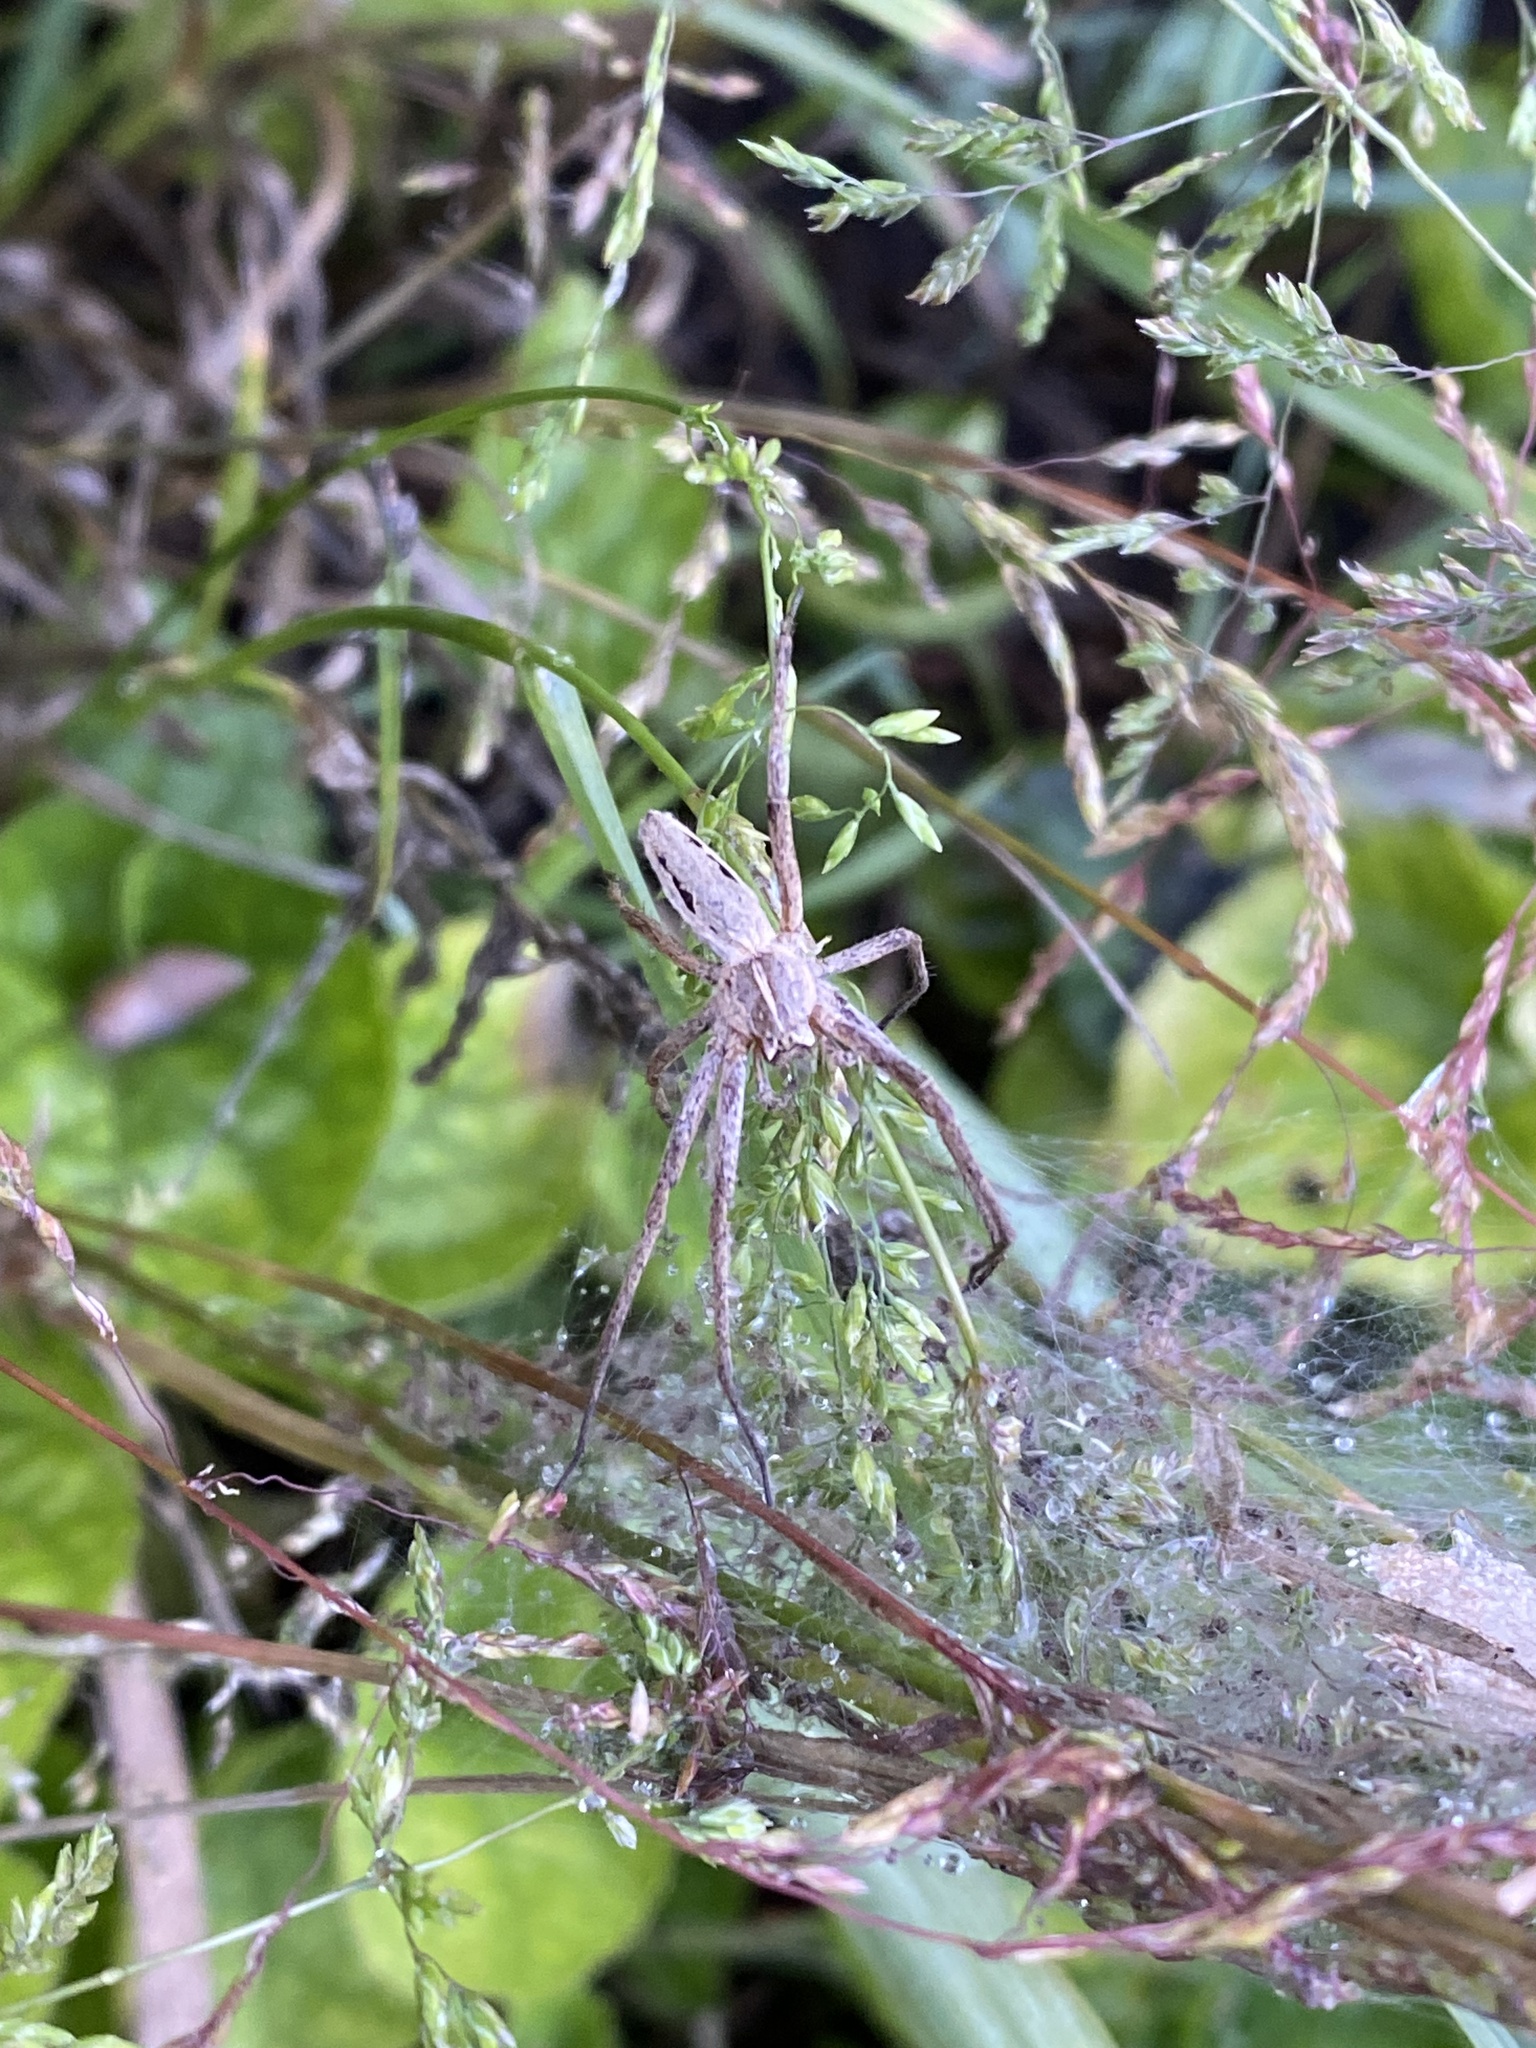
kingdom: Animalia
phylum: Arthropoda
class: Arachnida
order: Araneae
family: Pisauridae
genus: Pisaura
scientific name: Pisaura mirabilis
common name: Tent spider
